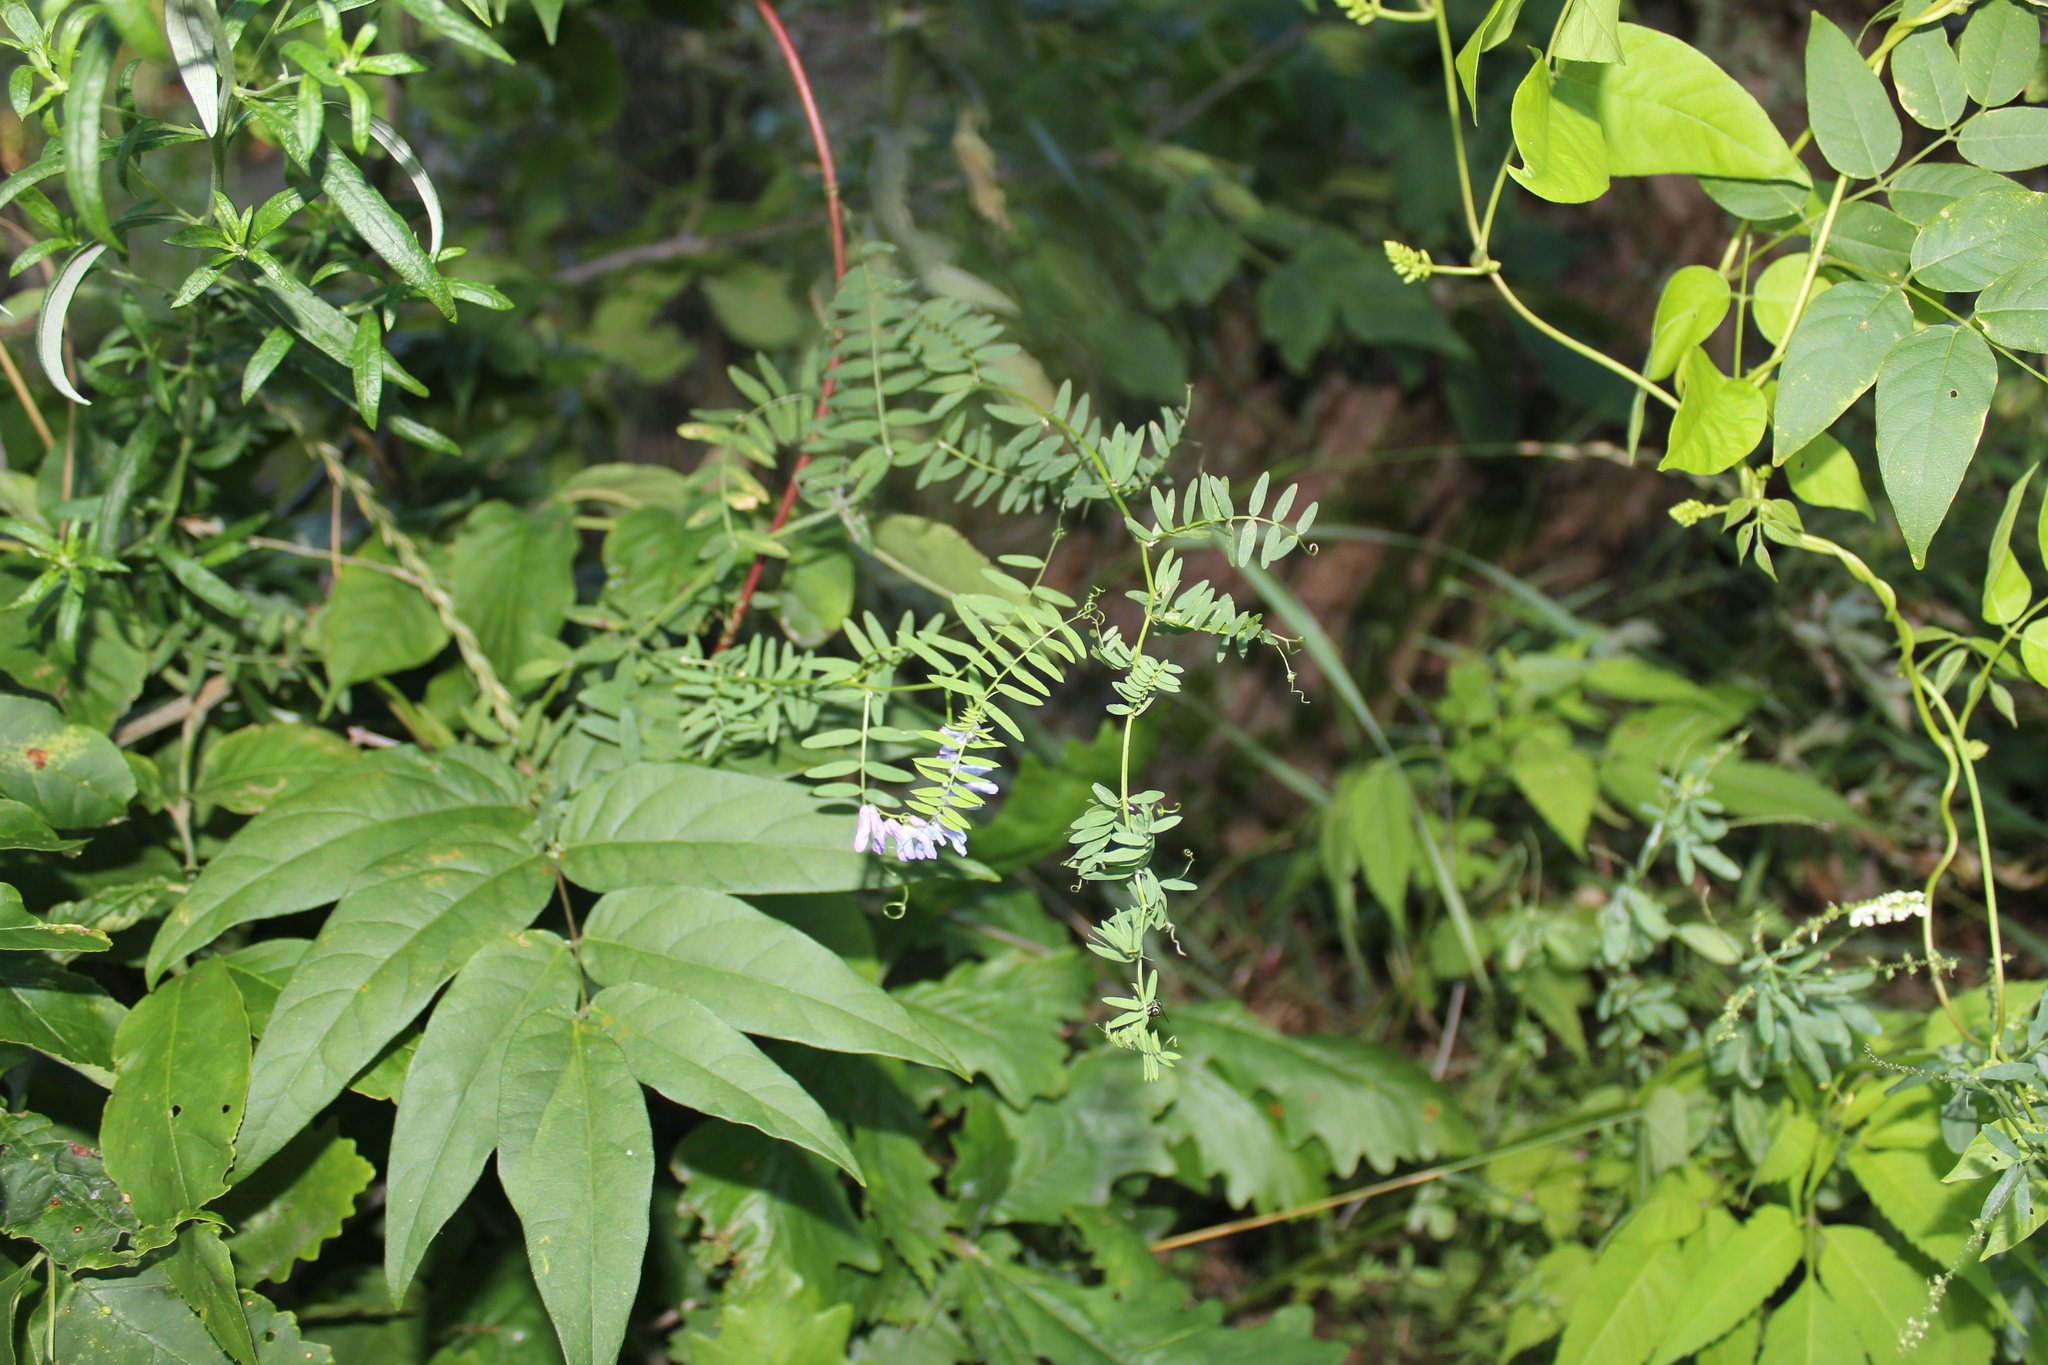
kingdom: Plantae
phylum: Tracheophyta
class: Magnoliopsida
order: Fabales
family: Fabaceae
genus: Vicia
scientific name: Vicia cracca
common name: Bird vetch
